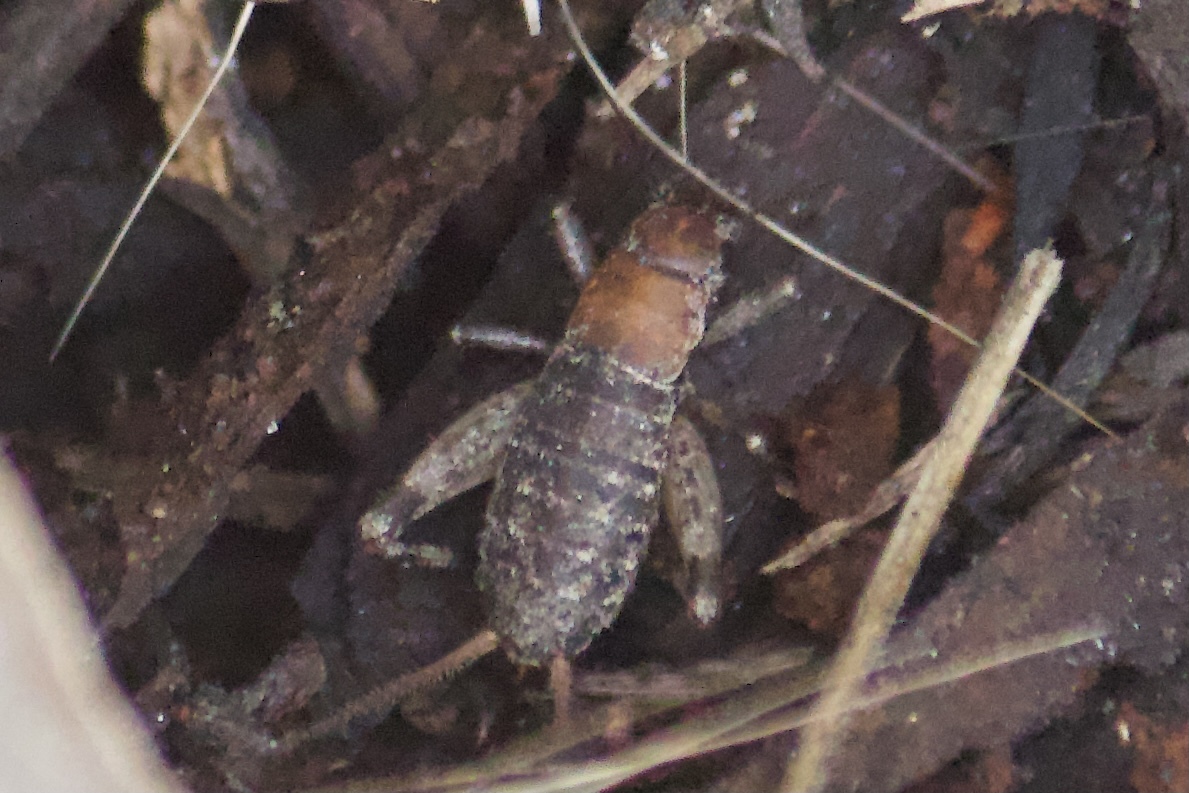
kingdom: Animalia
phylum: Arthropoda
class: Insecta
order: Orthoptera
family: Mogoplistidae
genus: Hoplosphyrum
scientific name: Hoplosphyrum boreale
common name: Long-winged scaly cricket
